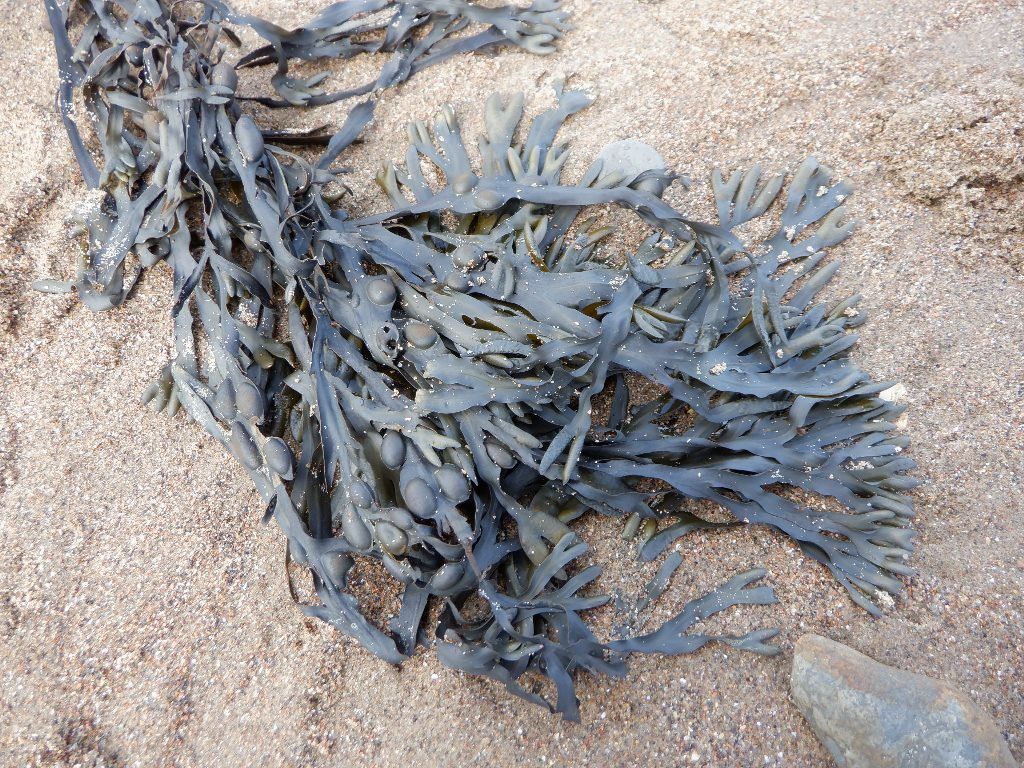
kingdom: Chromista
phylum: Ochrophyta
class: Phaeophyceae
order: Fucales
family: Fucaceae
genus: Fucus
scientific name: Fucus vesiculosus
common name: Bladder wrack
